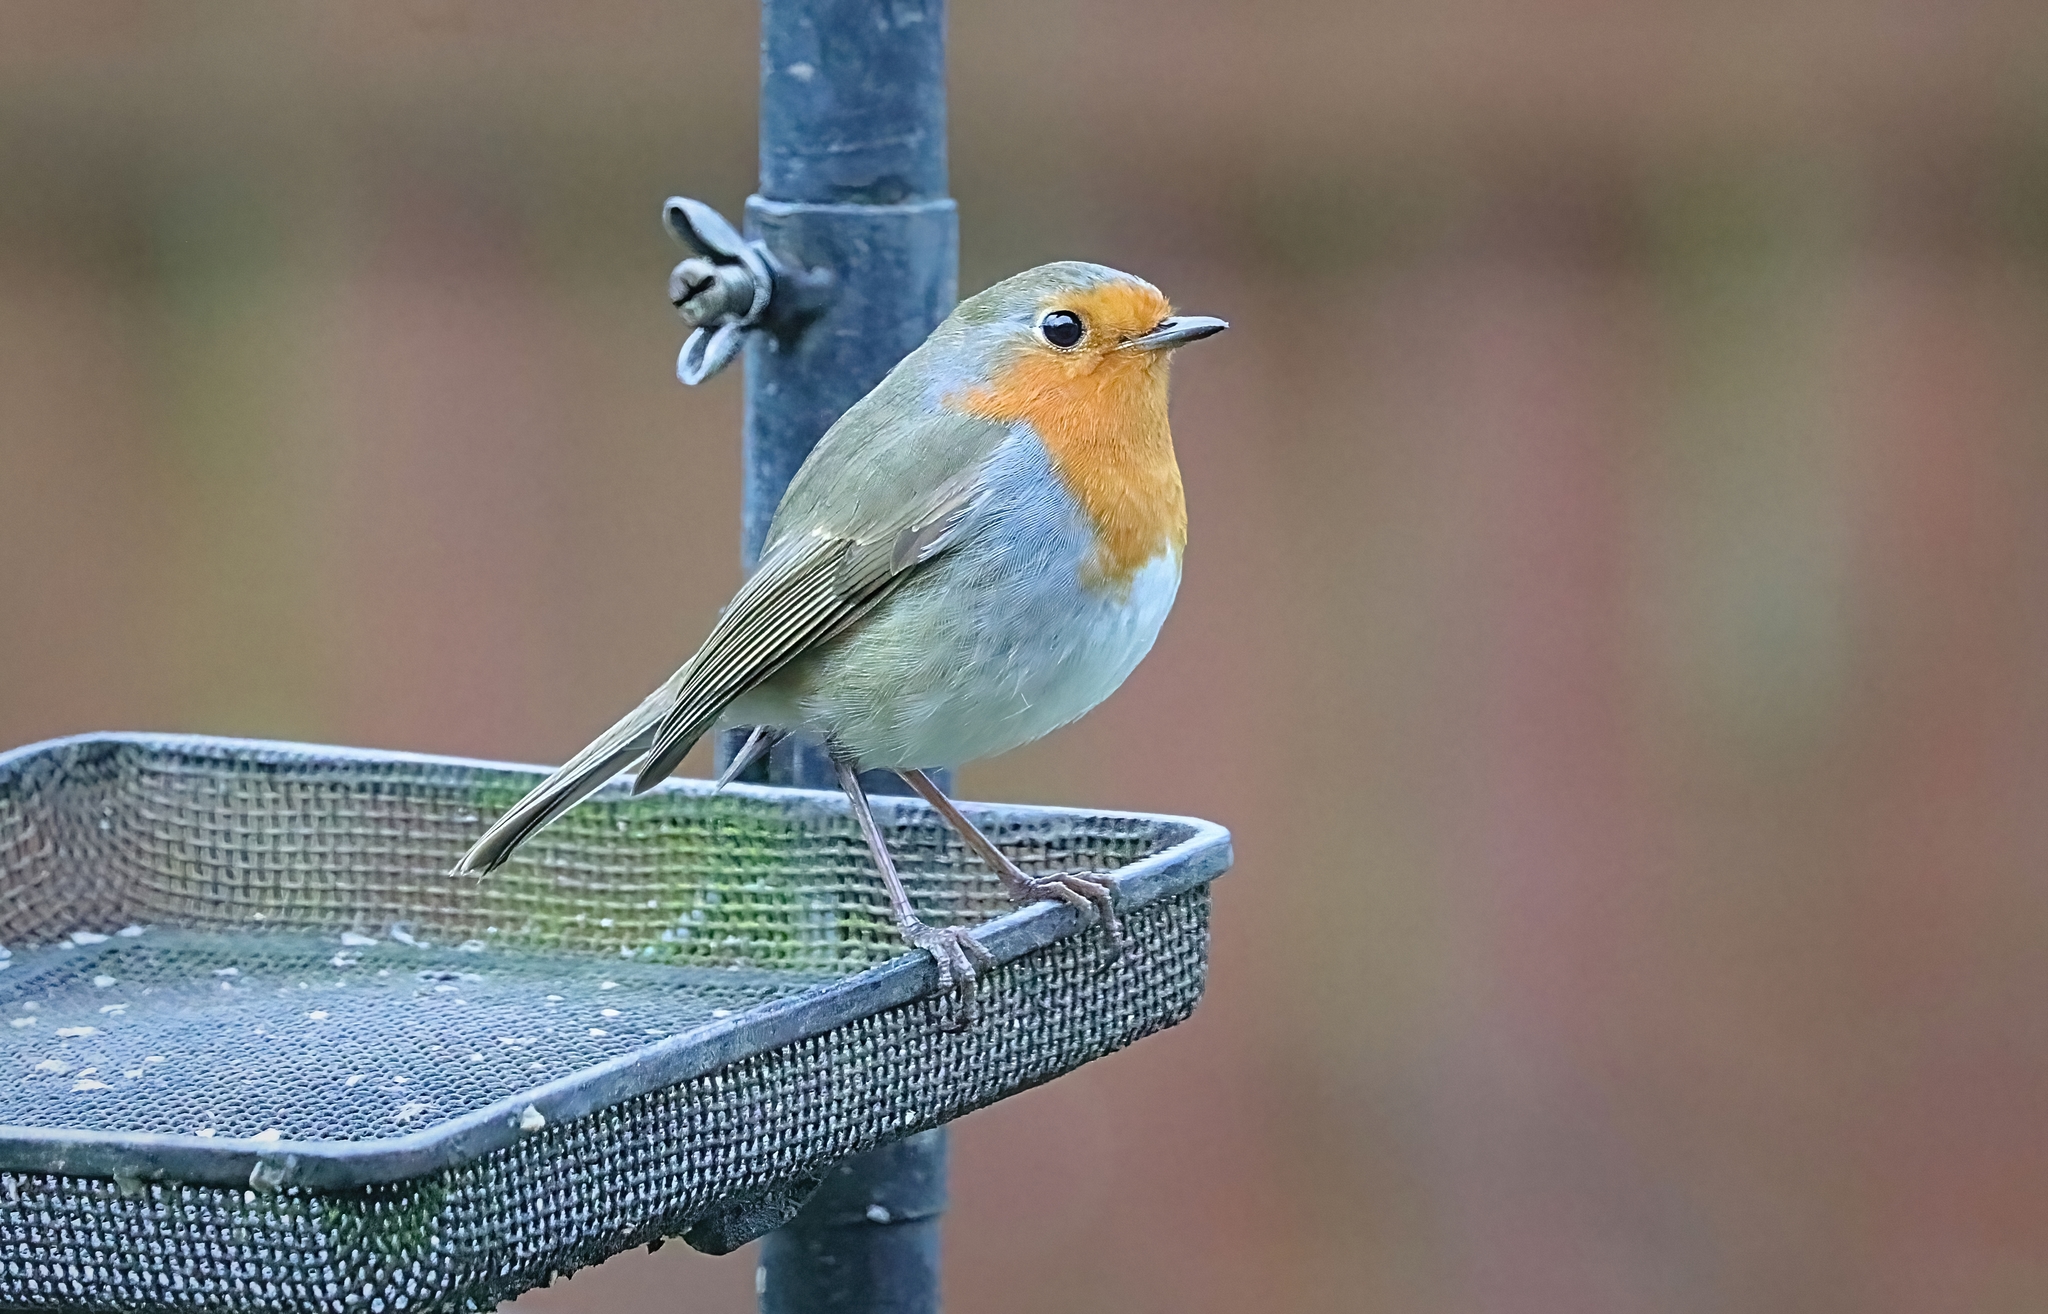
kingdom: Animalia
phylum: Chordata
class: Aves
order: Passeriformes
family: Muscicapidae
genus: Erithacus
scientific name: Erithacus rubecula
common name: European robin
